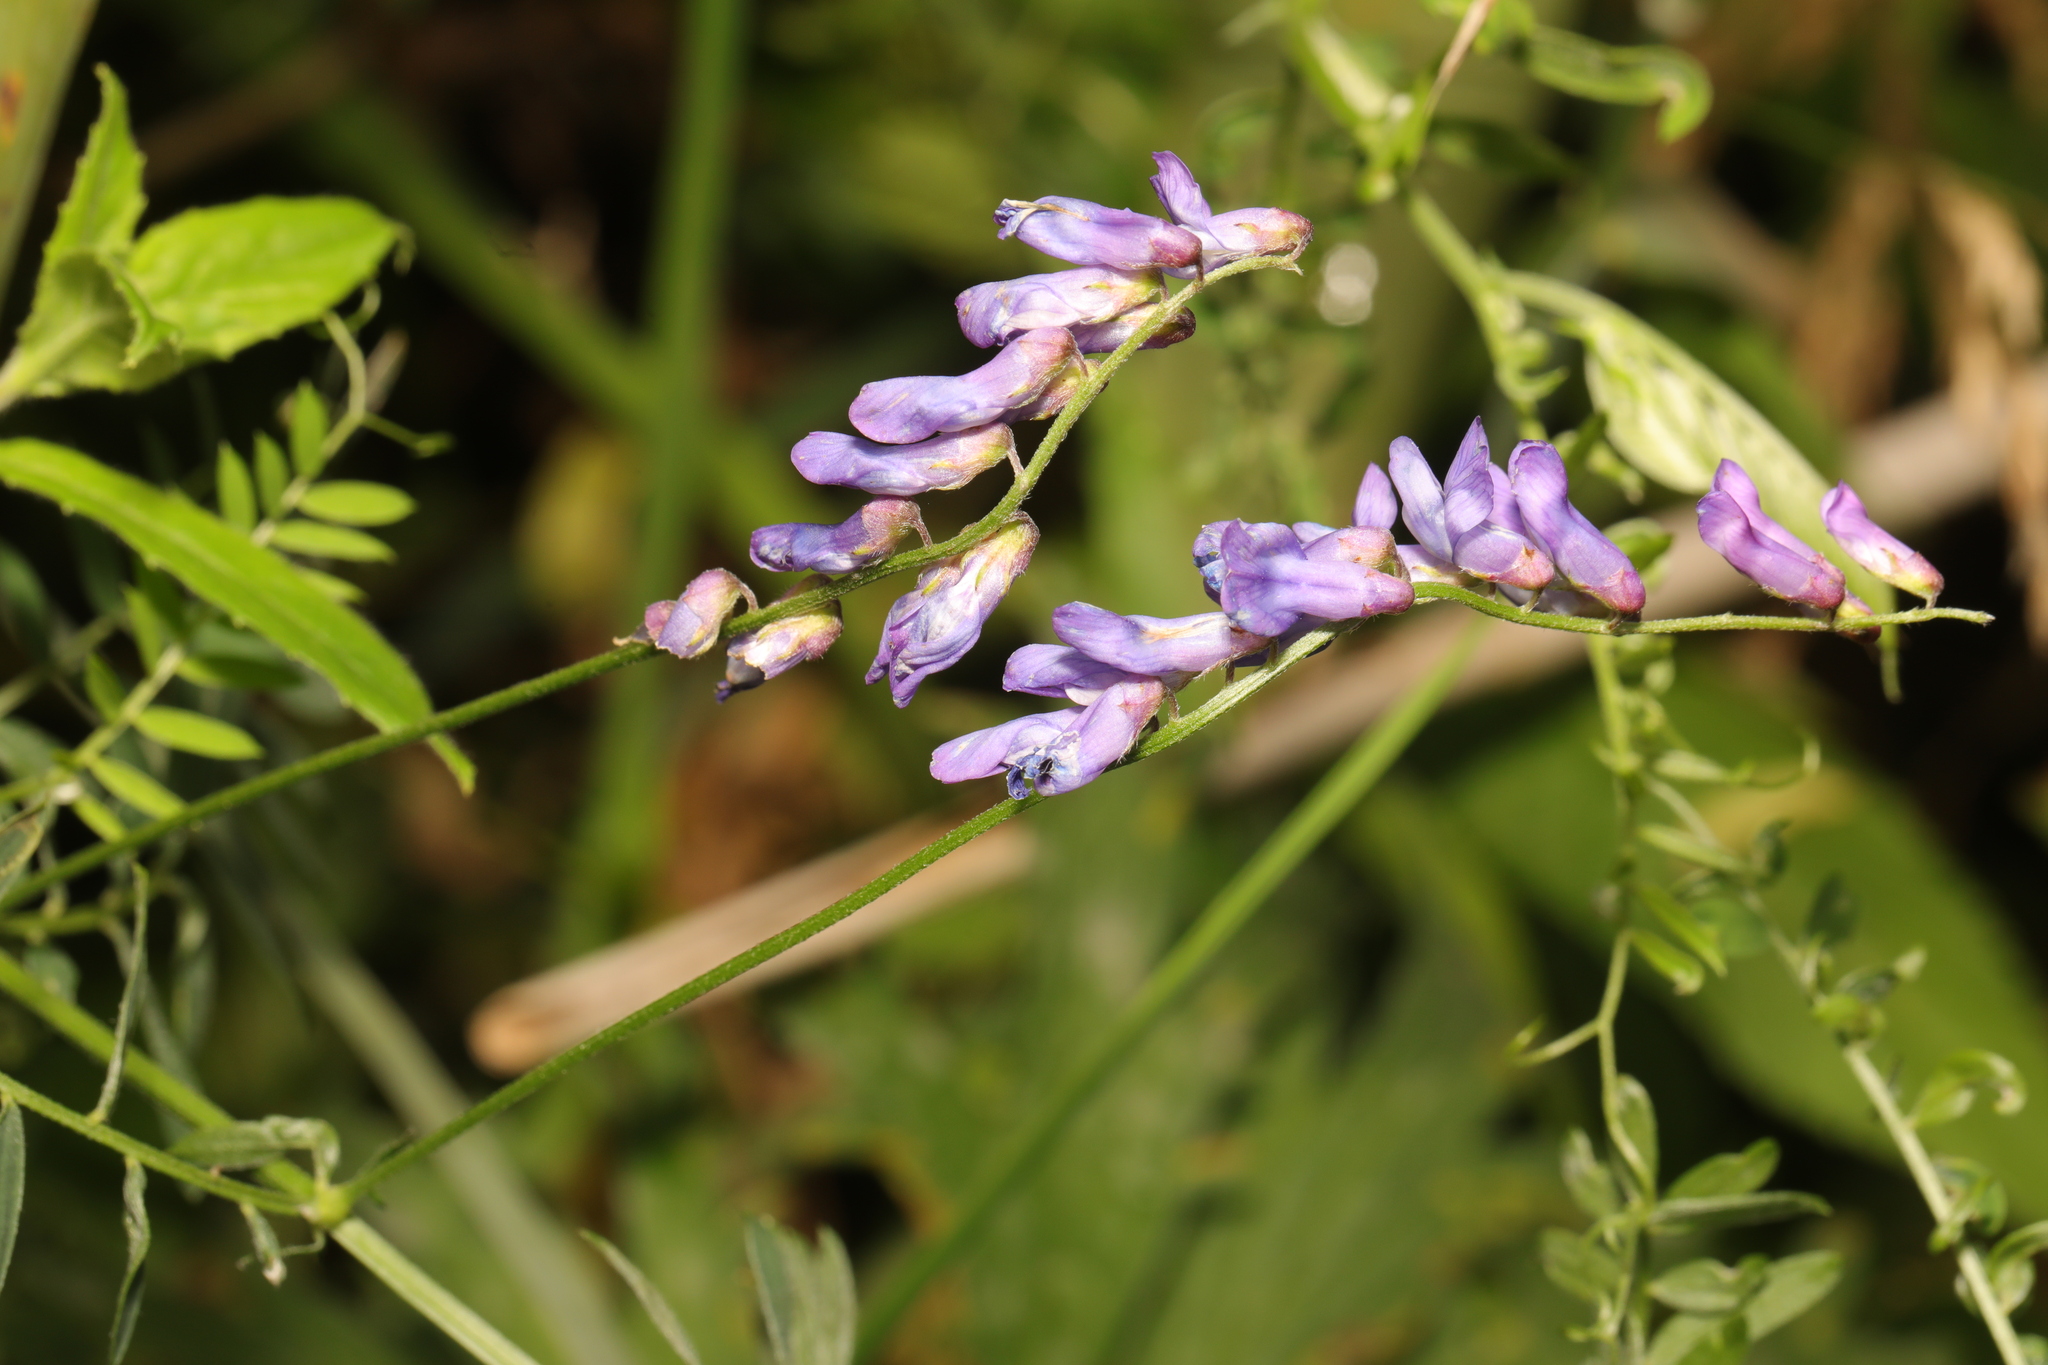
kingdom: Plantae
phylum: Tracheophyta
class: Magnoliopsida
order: Fabales
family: Fabaceae
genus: Vicia
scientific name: Vicia cracca
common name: Bird vetch
